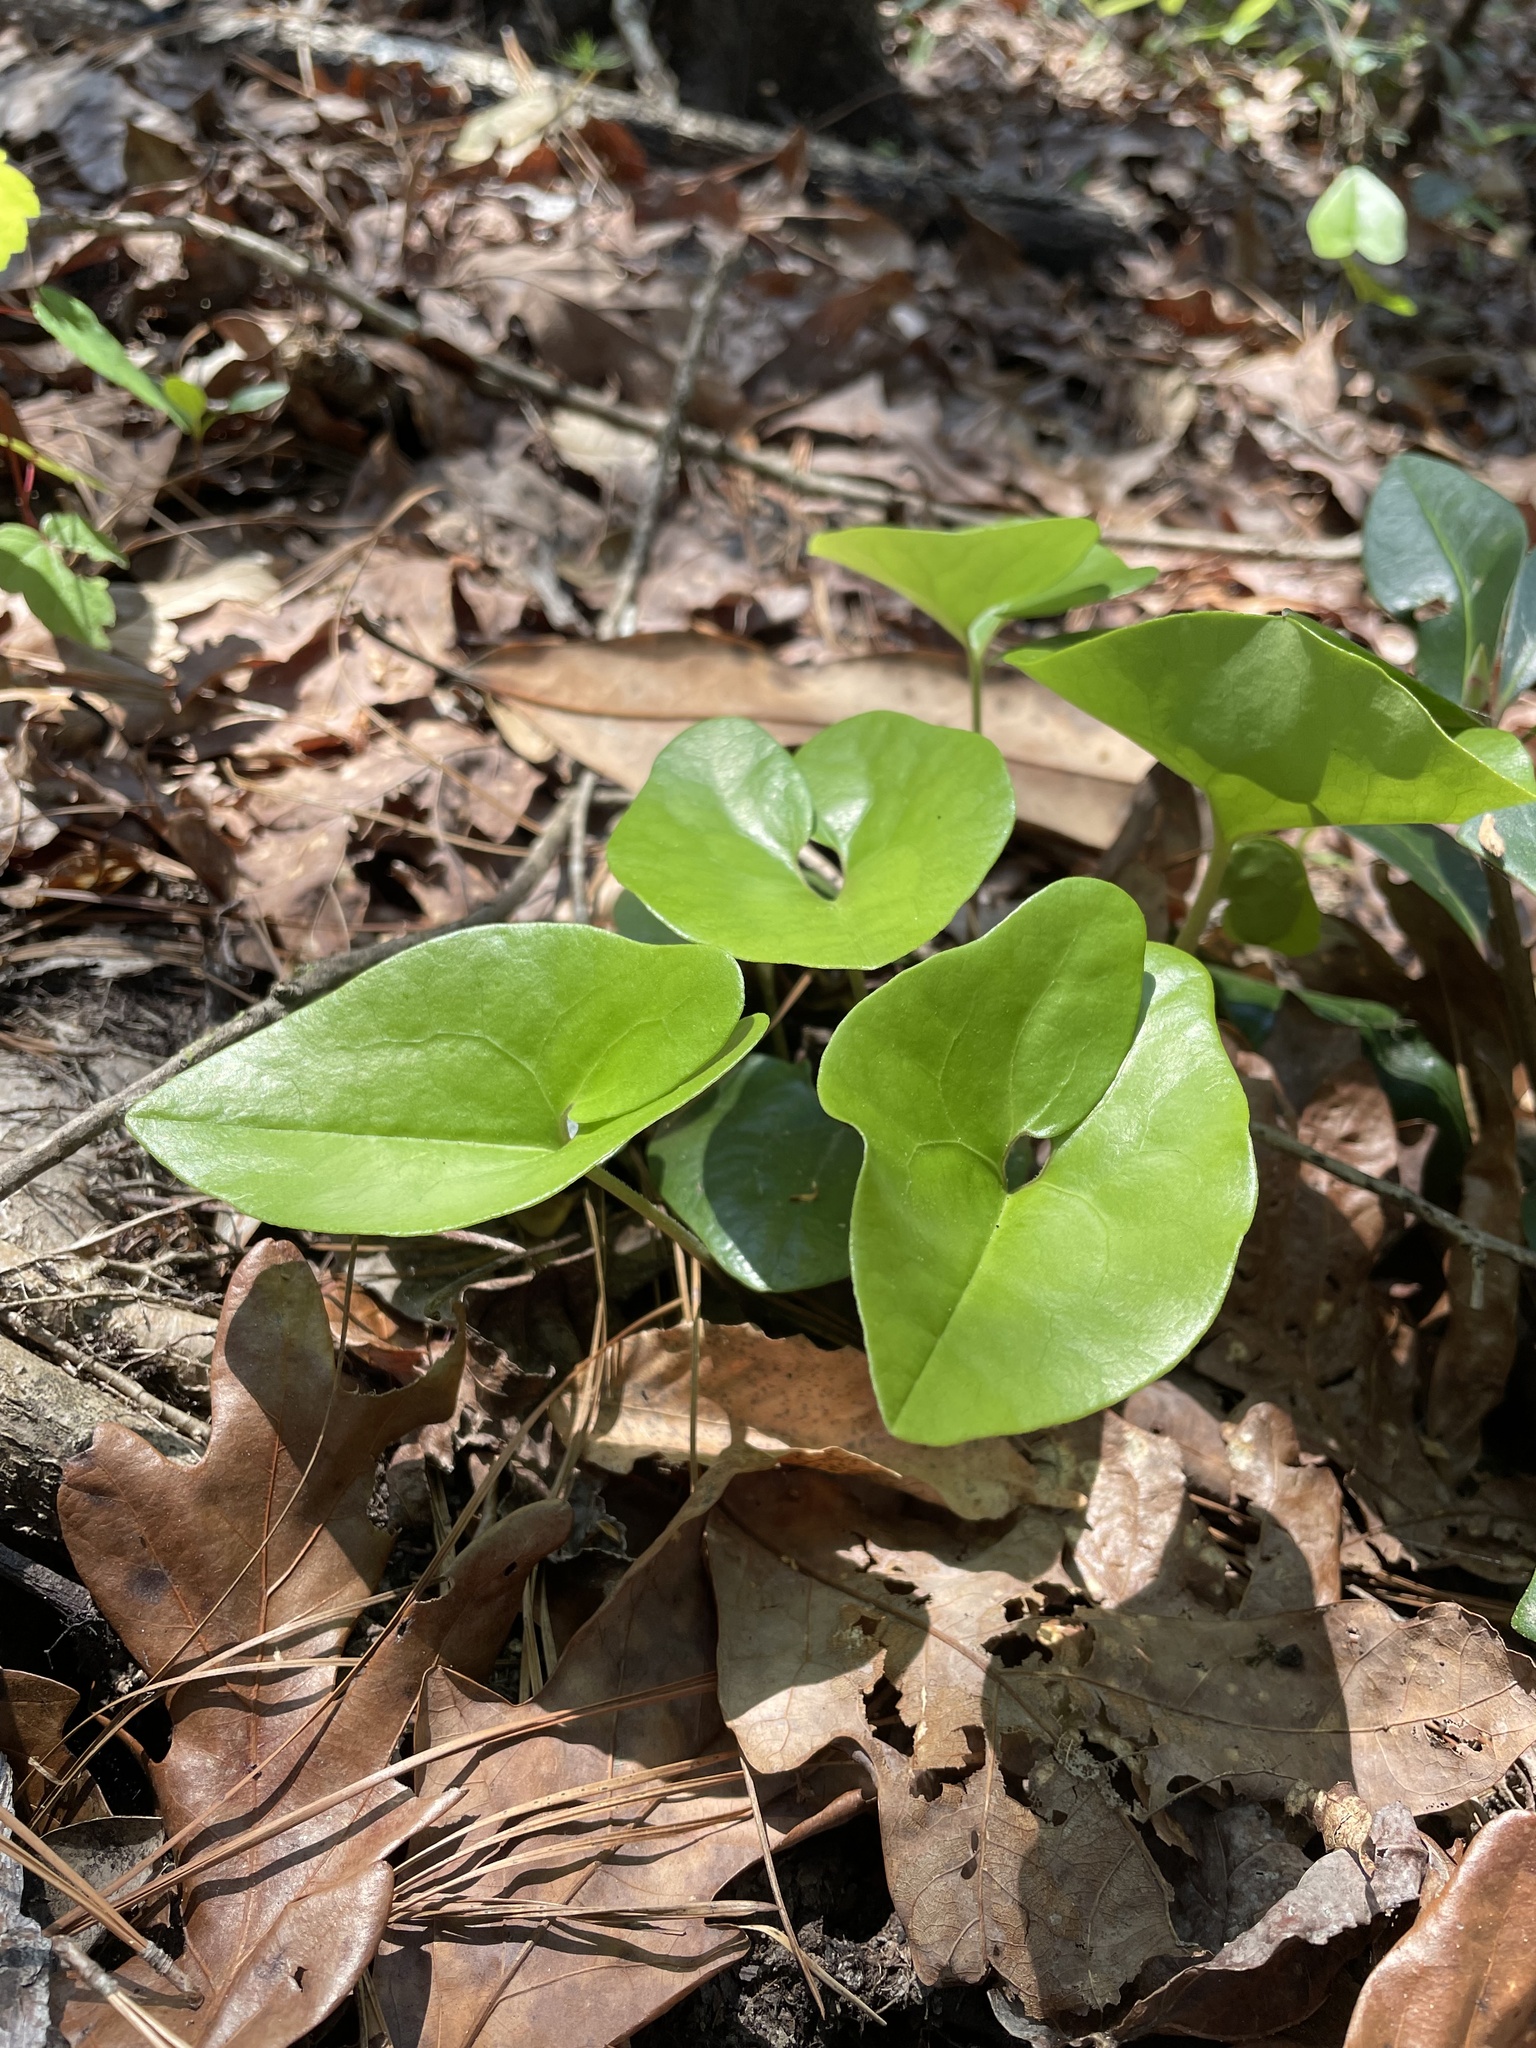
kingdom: Plantae
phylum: Tracheophyta
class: Magnoliopsida
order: Piperales
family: Aristolochiaceae
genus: Hexastylis
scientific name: Hexastylis arifolia
